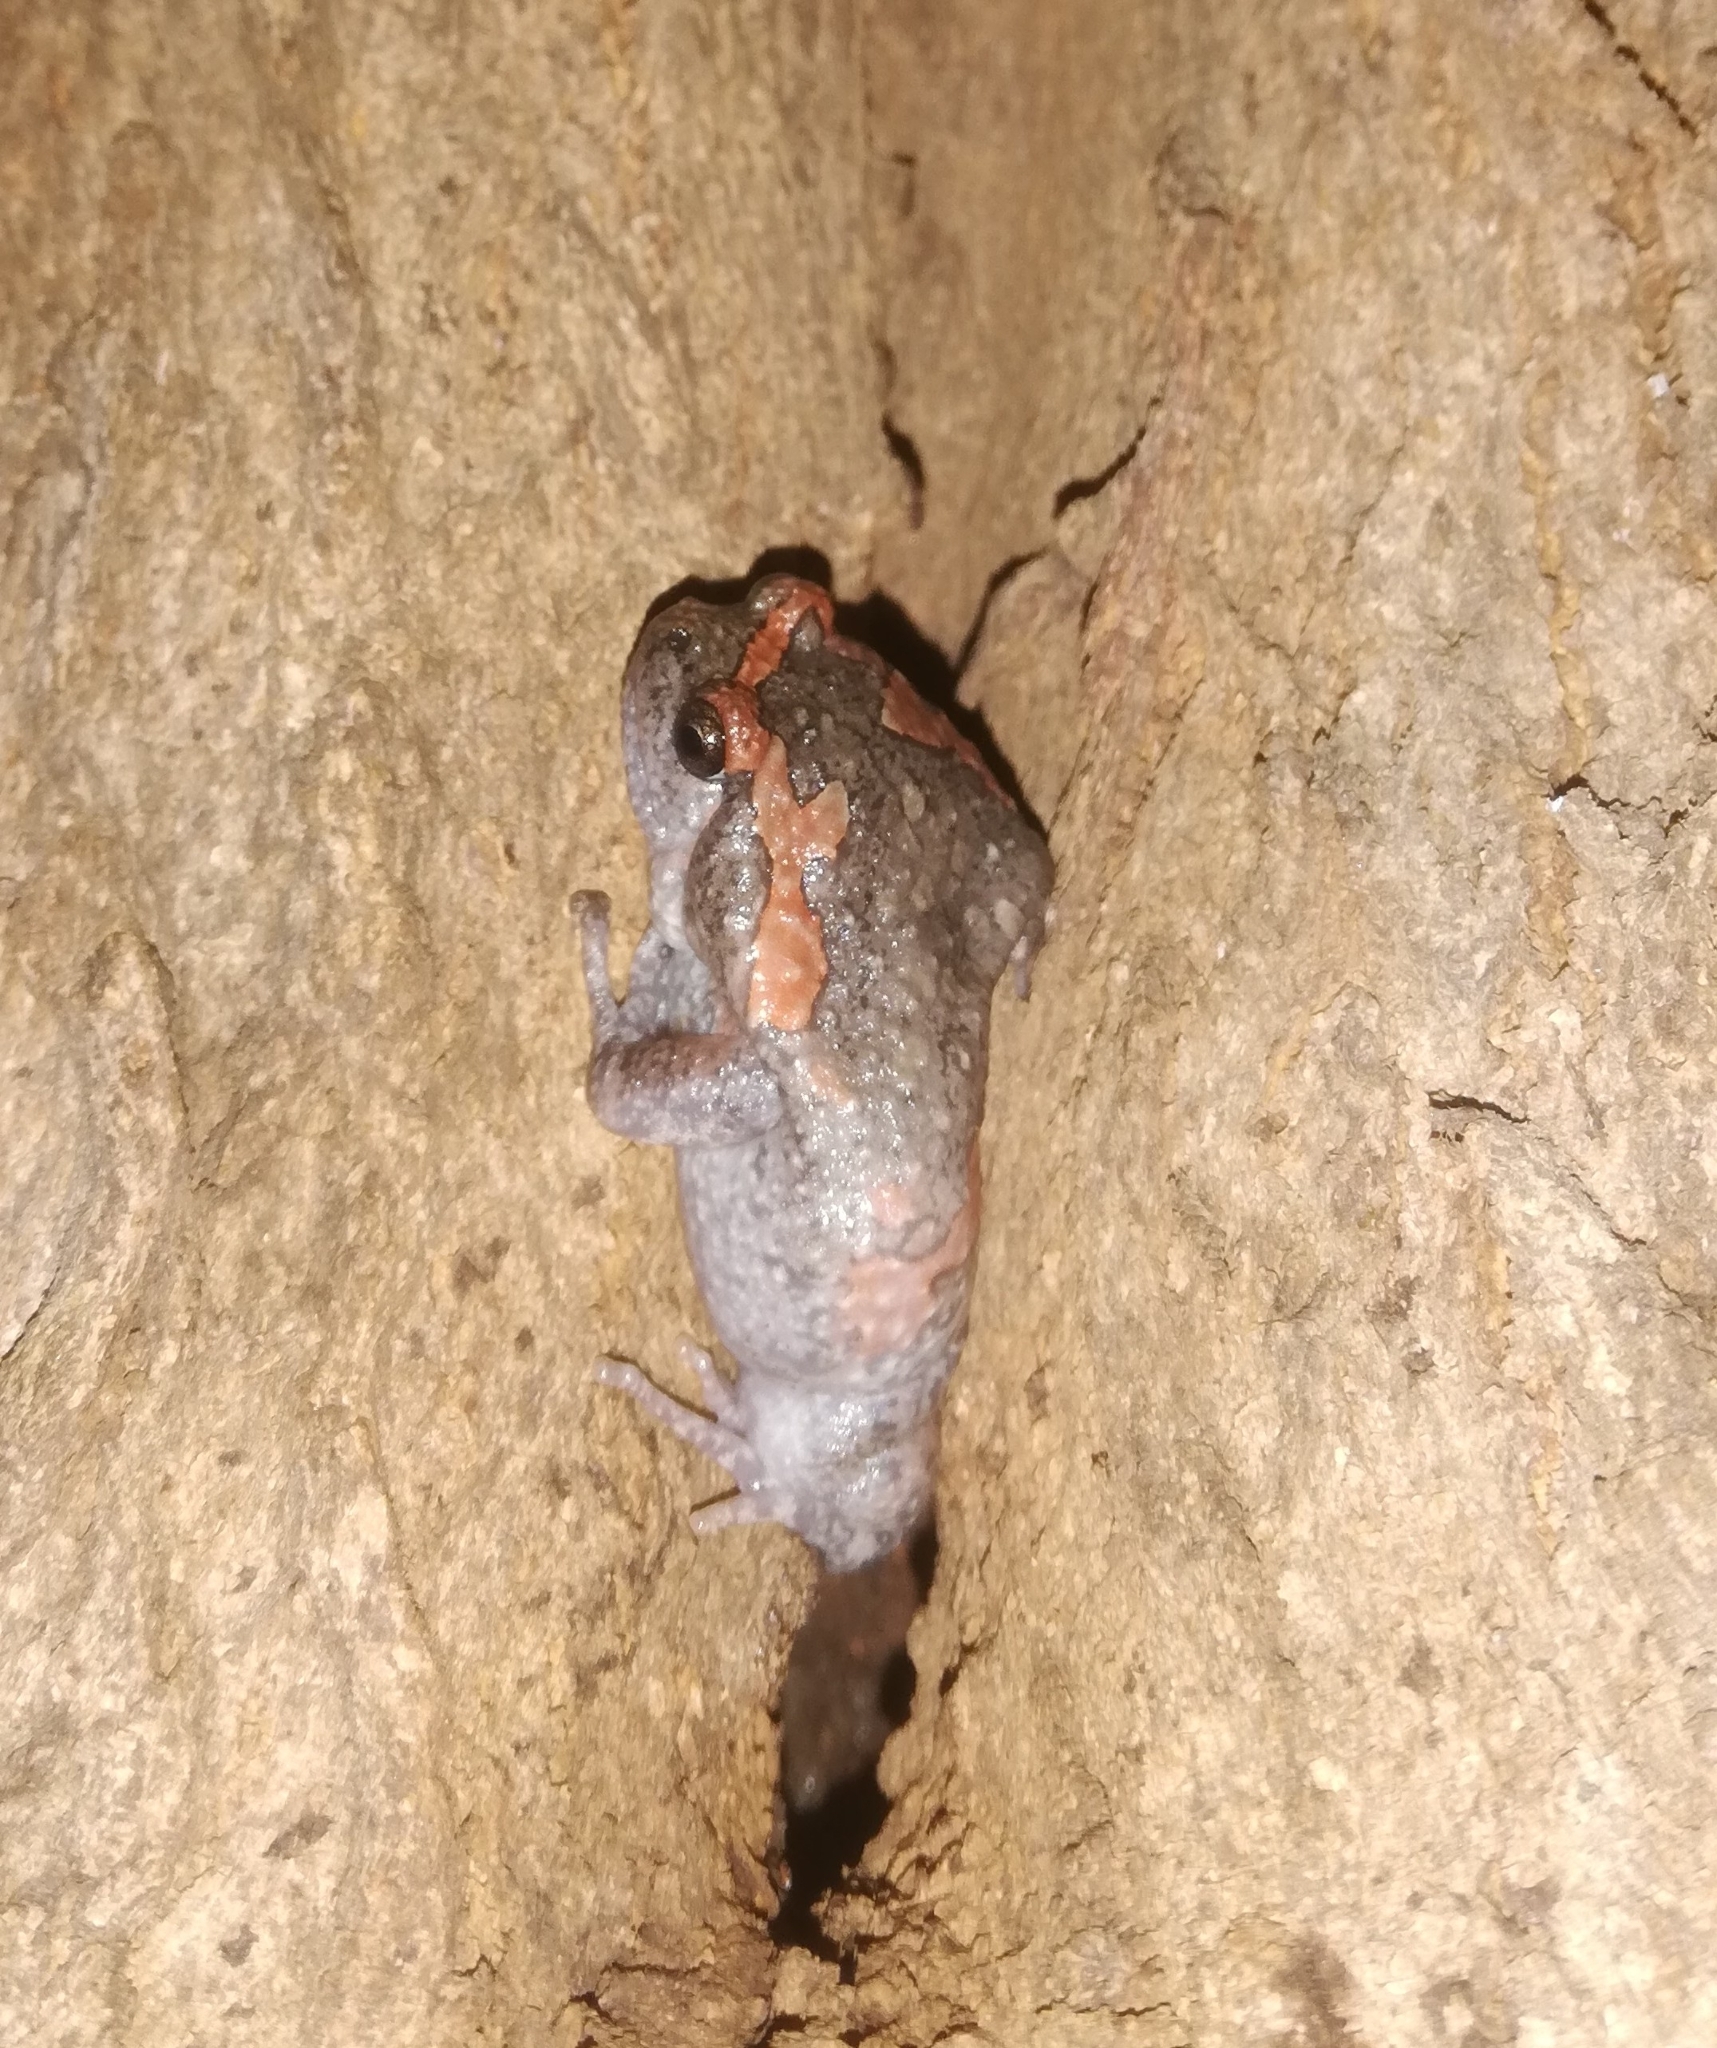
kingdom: Animalia
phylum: Chordata
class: Amphibia
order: Anura
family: Microhylidae
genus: Uperodon
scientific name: Uperodon taprobanicus
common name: Ceylon kaloula
